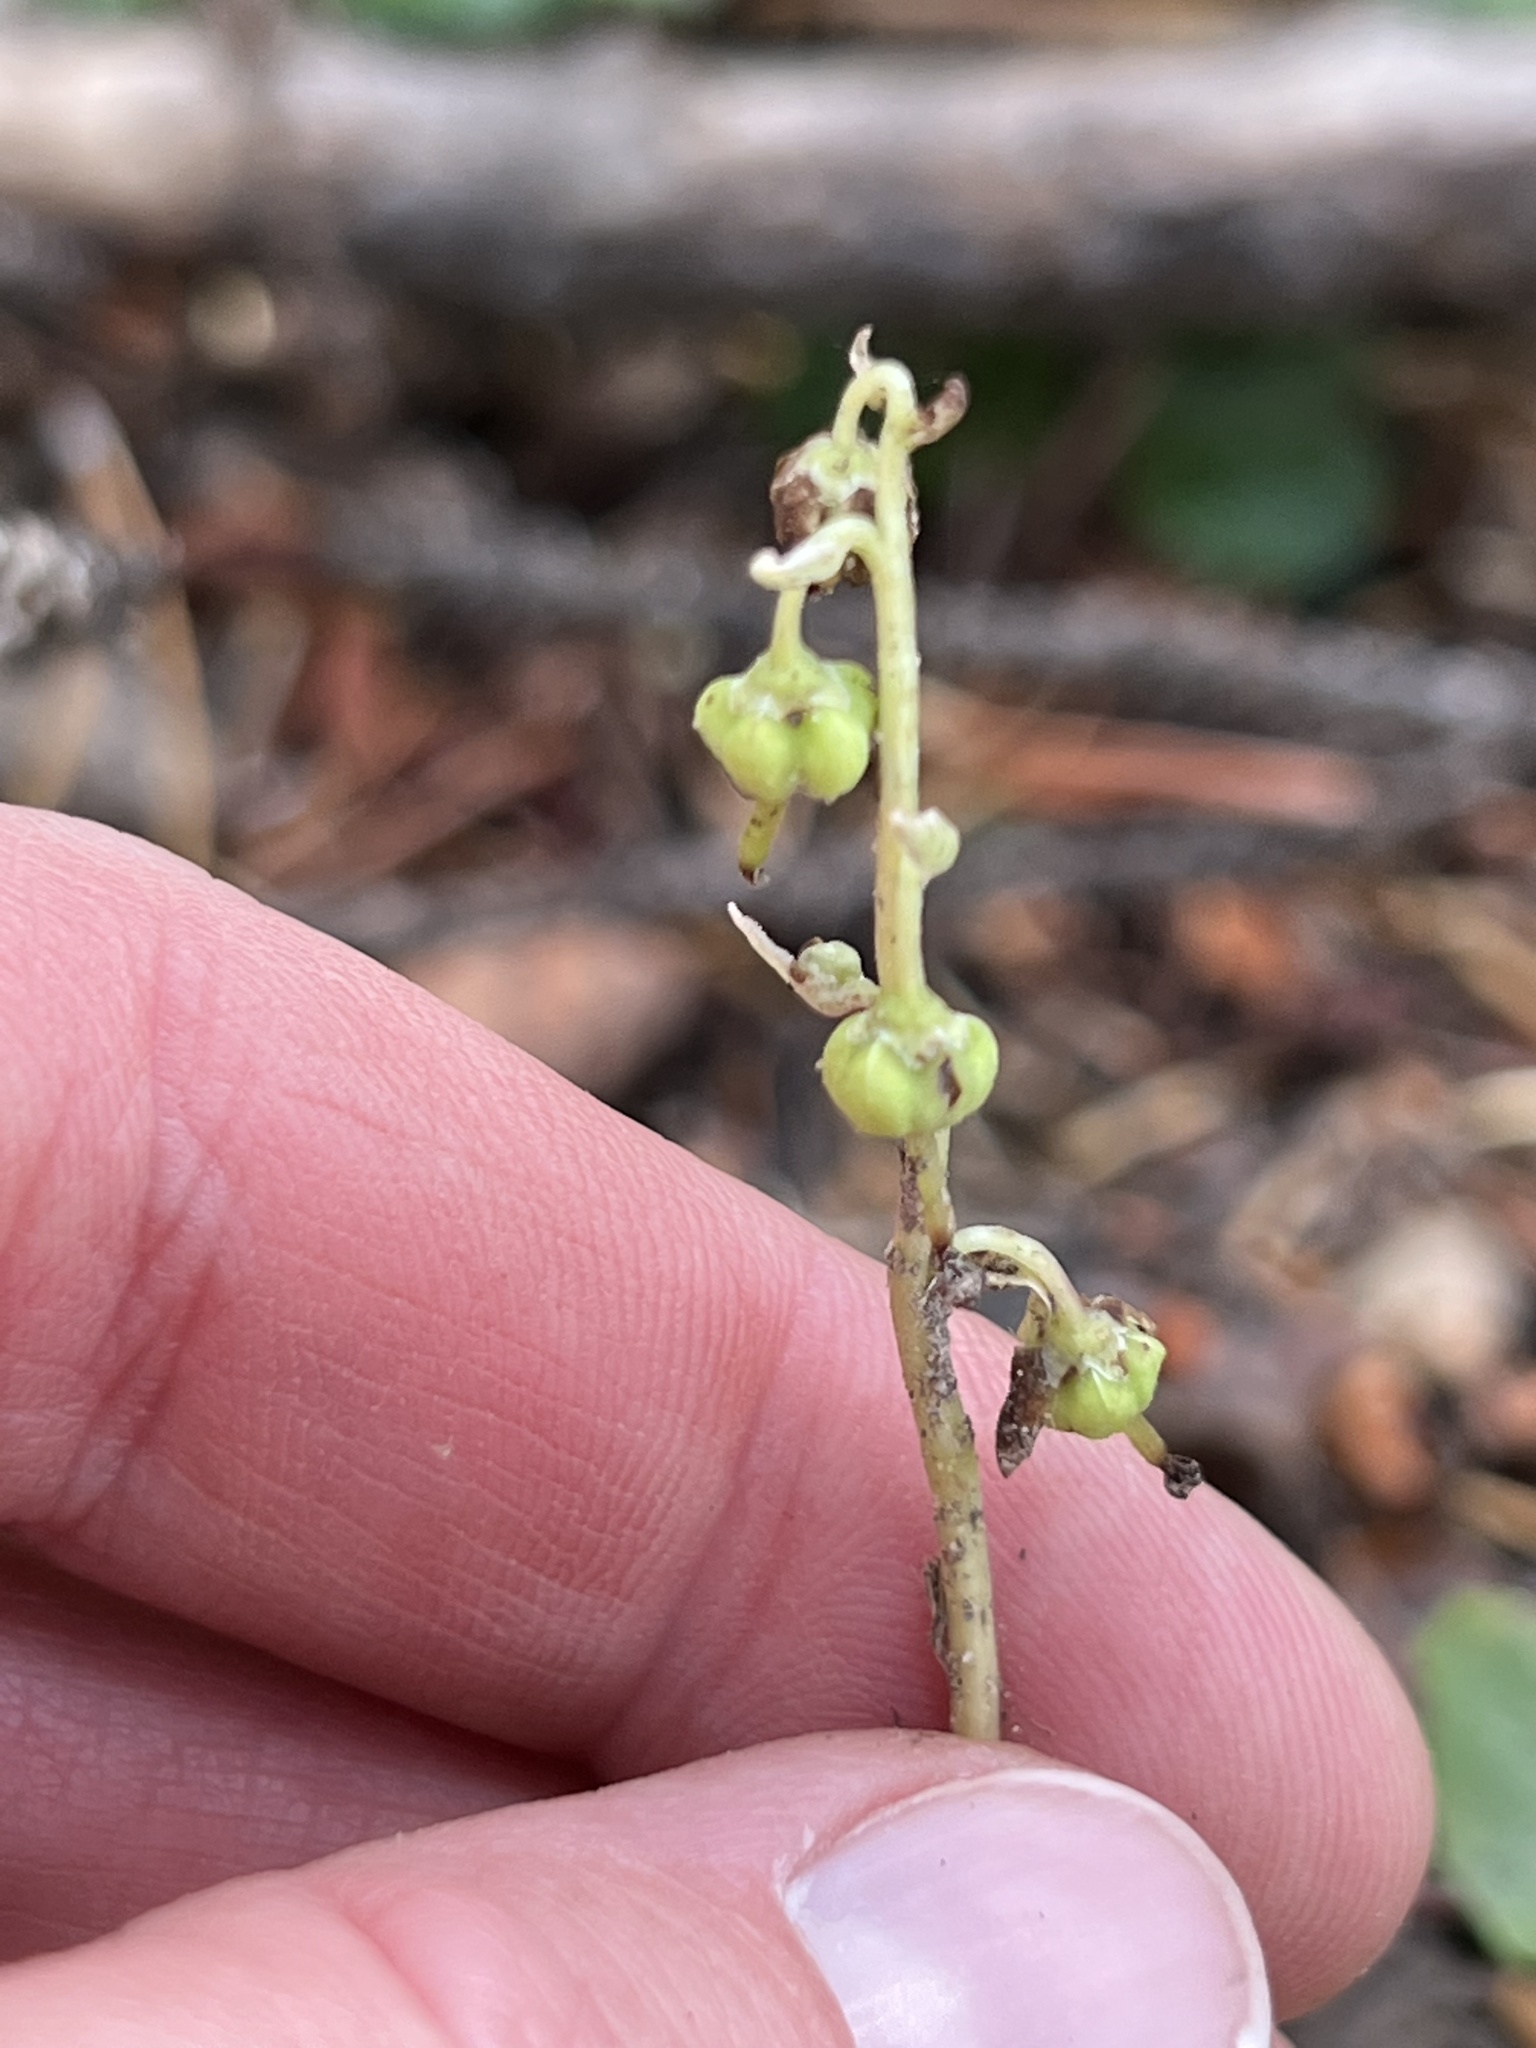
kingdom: Plantae
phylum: Tracheophyta
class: Magnoliopsida
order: Ericales
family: Ericaceae
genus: Orthilia
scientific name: Orthilia secunda
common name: One-sided orthilia
